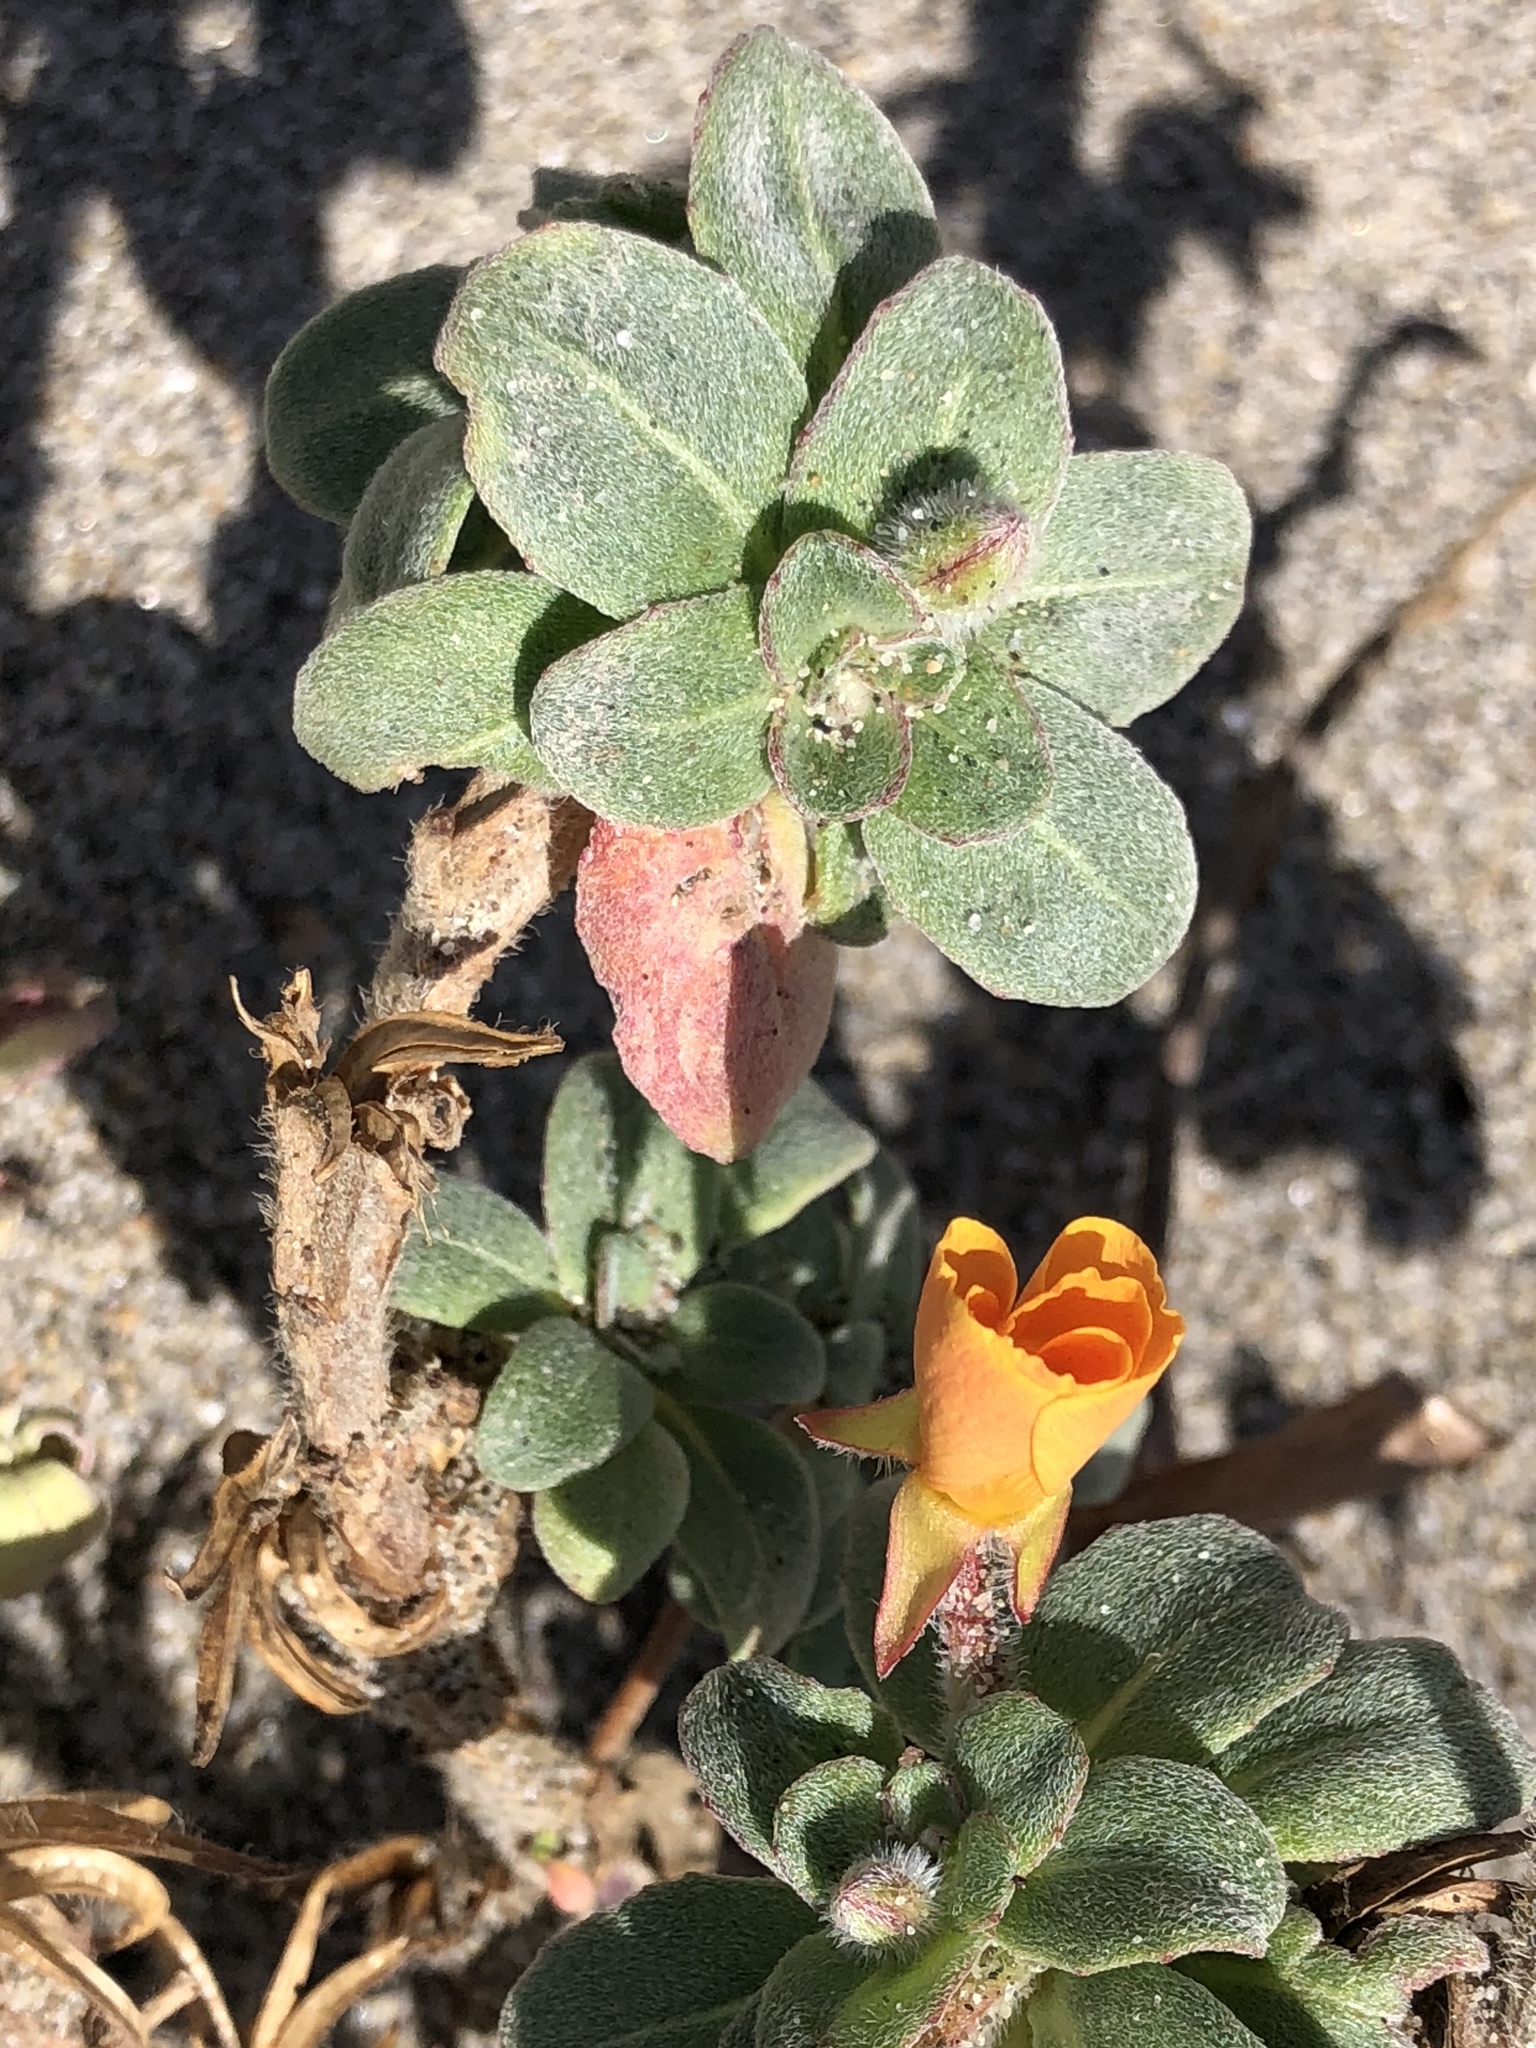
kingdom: Plantae
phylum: Tracheophyta
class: Magnoliopsida
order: Myrtales
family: Onagraceae
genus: Camissoniopsis
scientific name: Camissoniopsis cheiranthifolia
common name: Beach suncup
